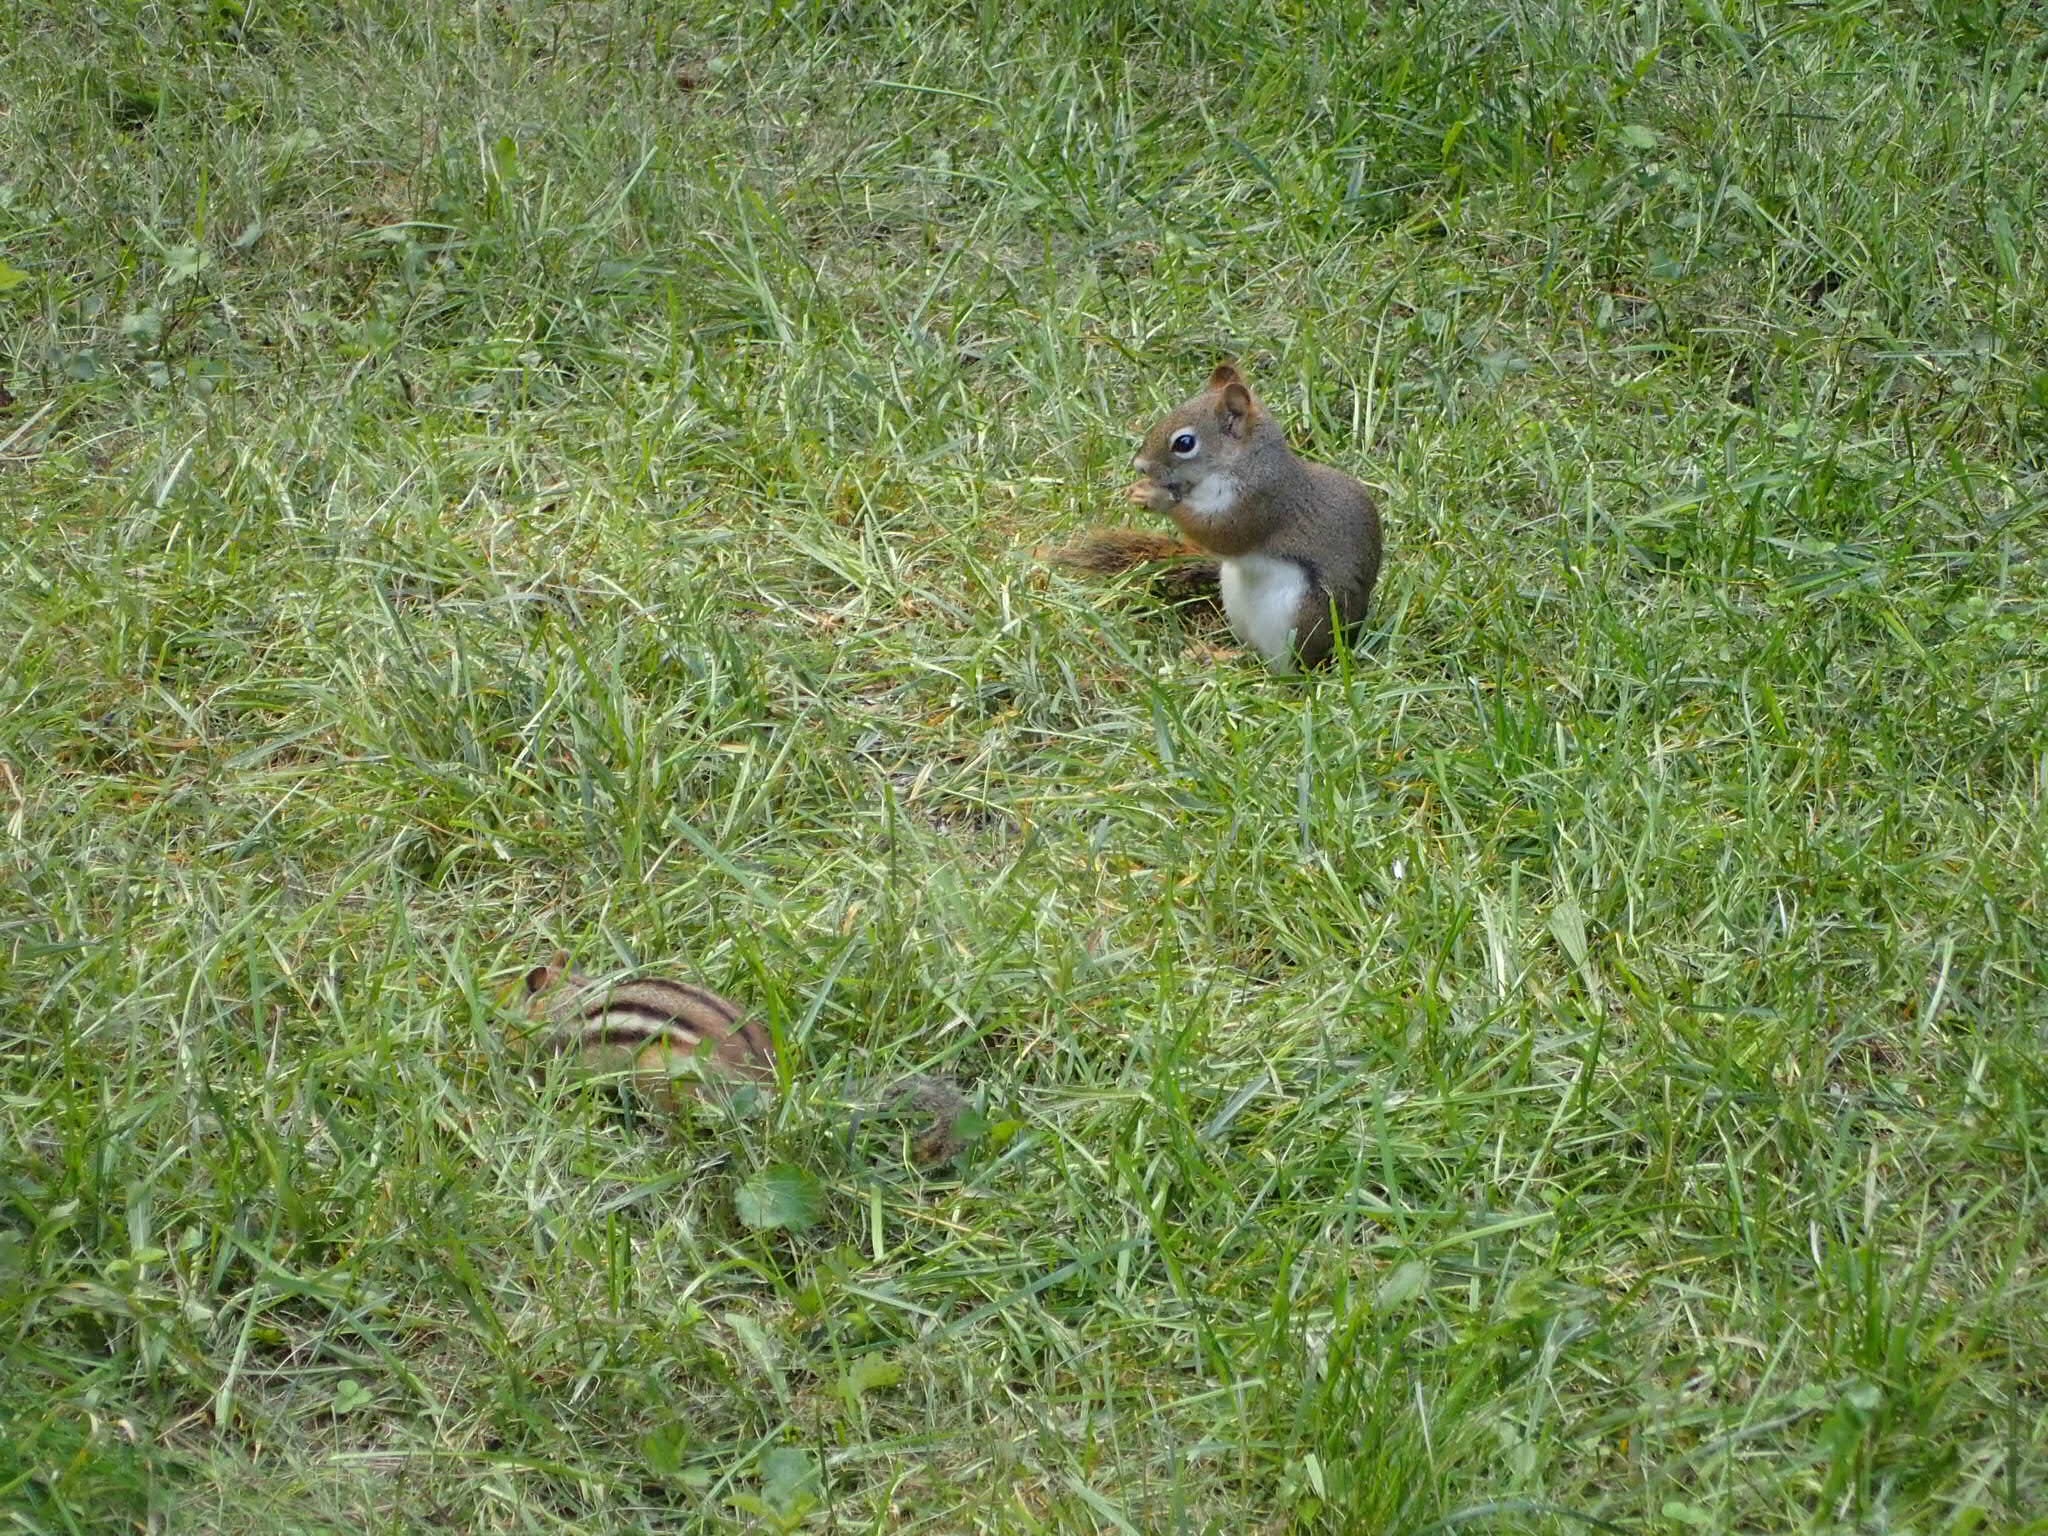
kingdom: Animalia
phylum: Chordata
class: Mammalia
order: Rodentia
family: Sciuridae
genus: Tamiasciurus
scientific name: Tamiasciurus hudsonicus
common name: Red squirrel
